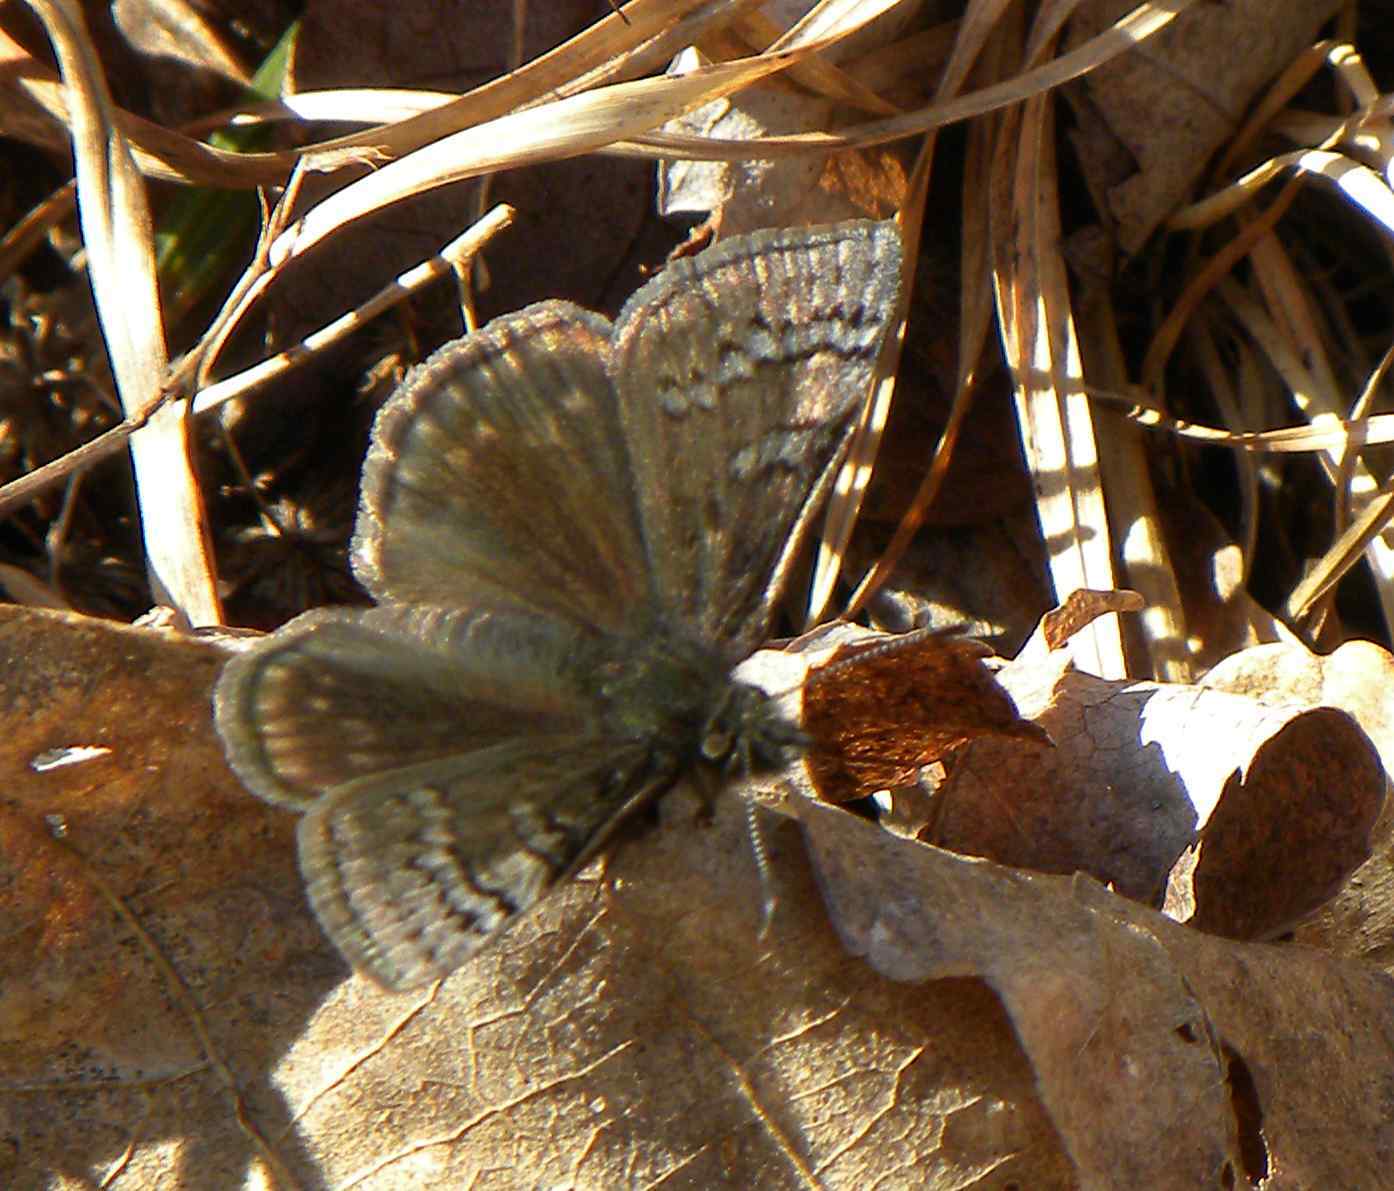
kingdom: Animalia
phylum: Arthropoda
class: Insecta
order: Lepidoptera
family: Hesperiidae
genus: Erynnis
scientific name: Erynnis brizo
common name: Sleepy duskywing
